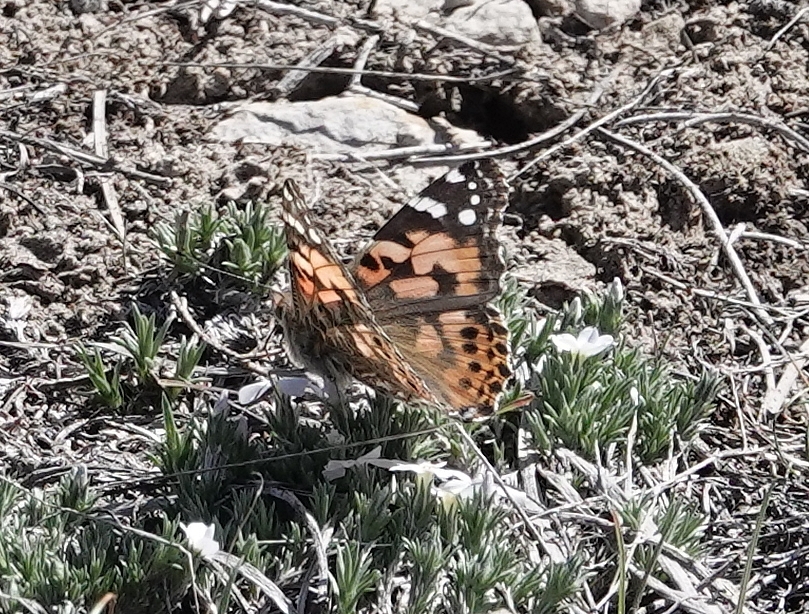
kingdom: Animalia
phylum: Arthropoda
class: Insecta
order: Lepidoptera
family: Nymphalidae
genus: Vanessa
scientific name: Vanessa cardui
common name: Painted lady
